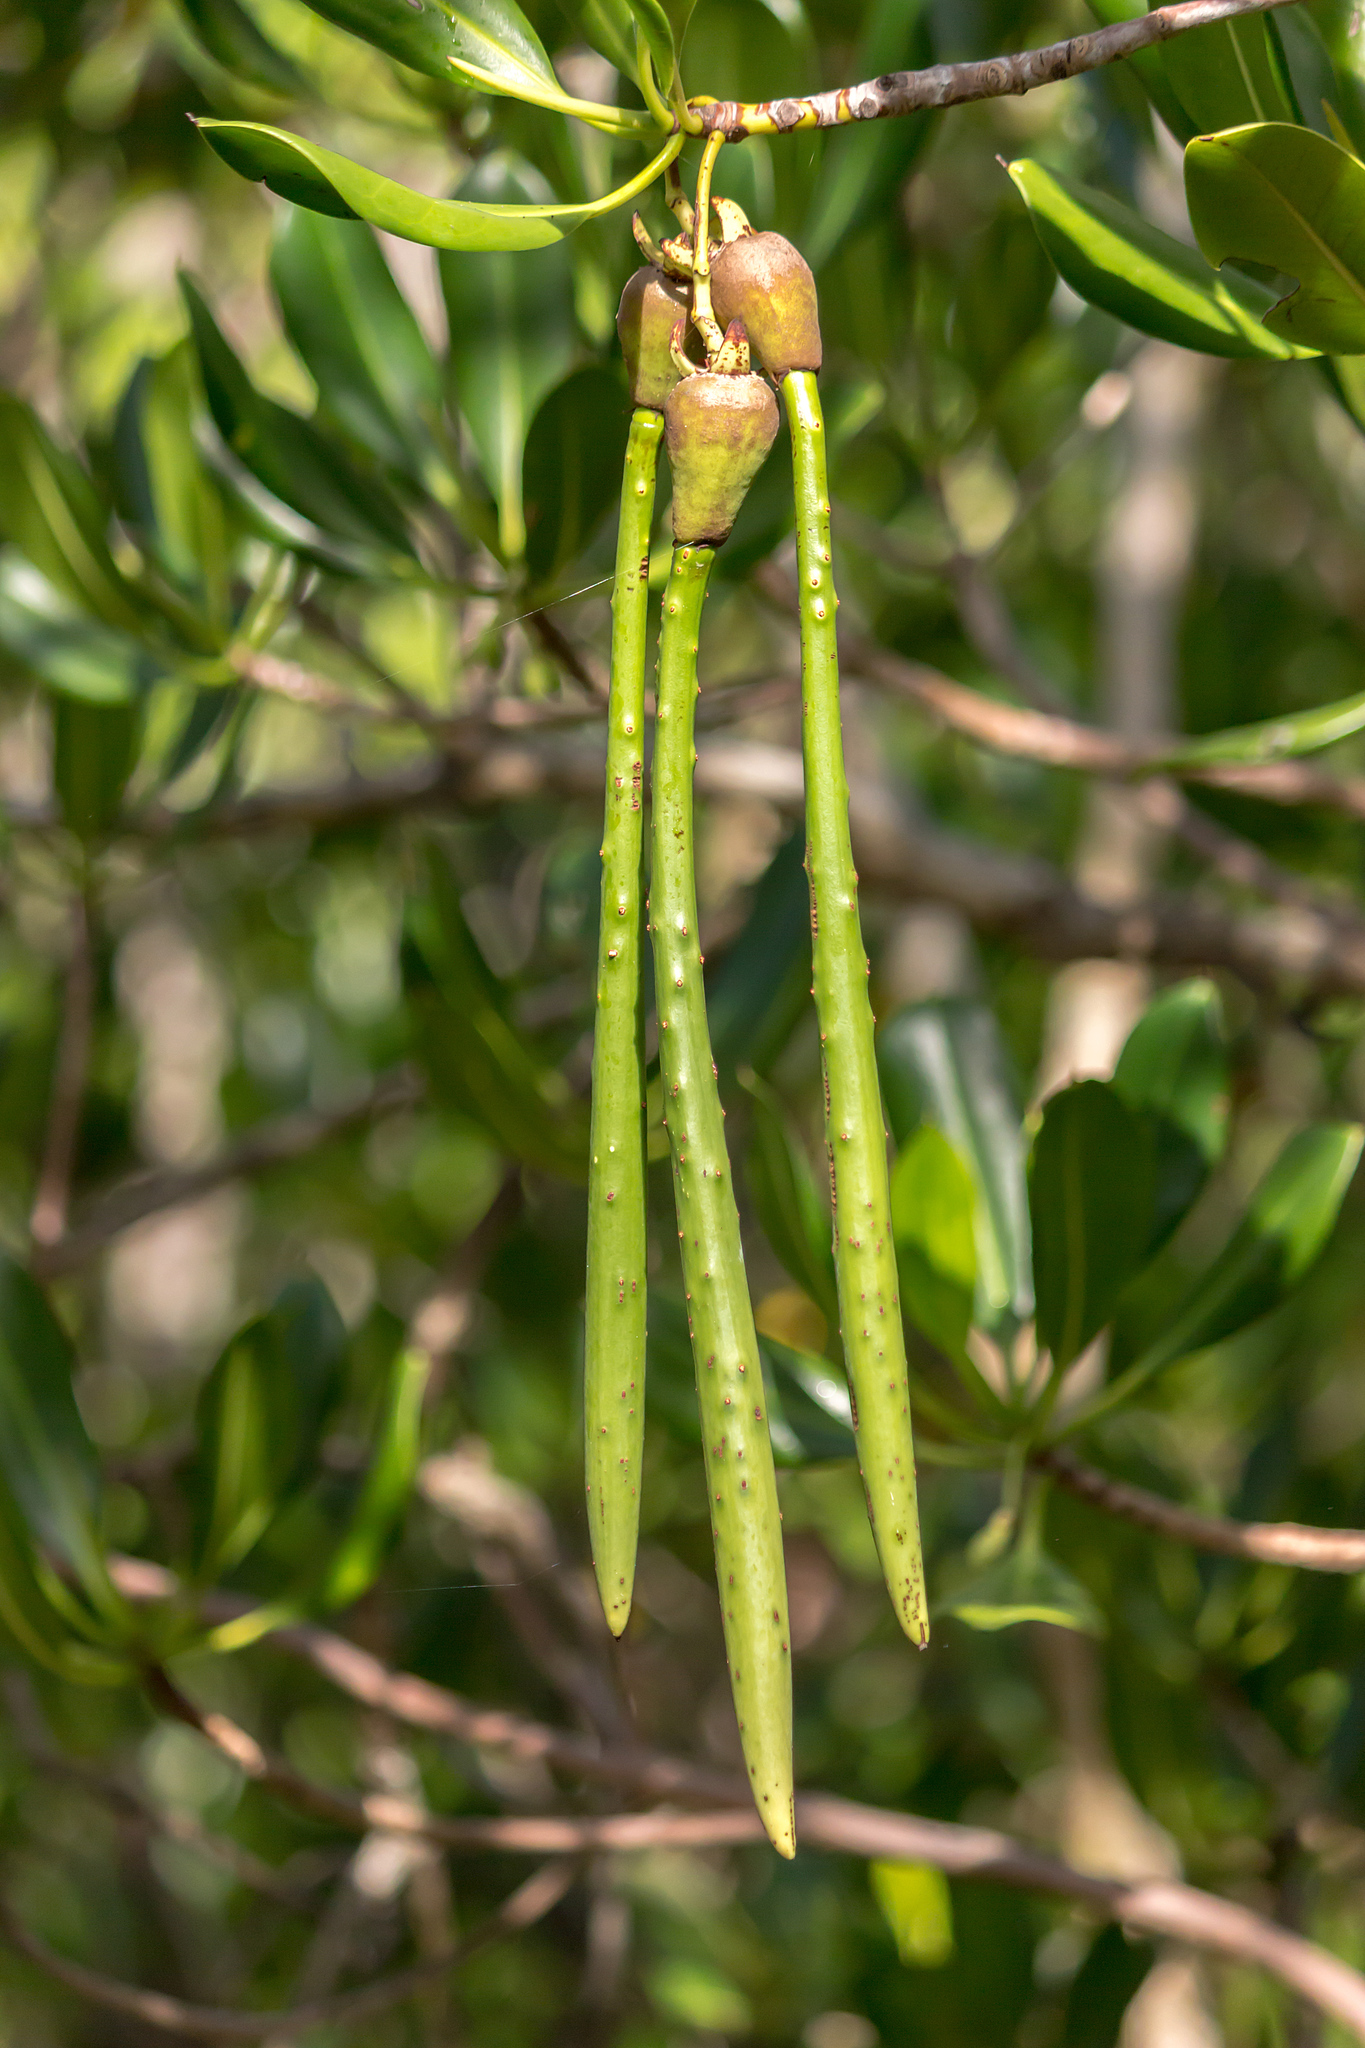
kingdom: Plantae
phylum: Tracheophyta
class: Magnoliopsida
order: Malpighiales
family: Rhizophoraceae
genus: Rhizophora
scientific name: Rhizophora stylosa
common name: Red mangrove
